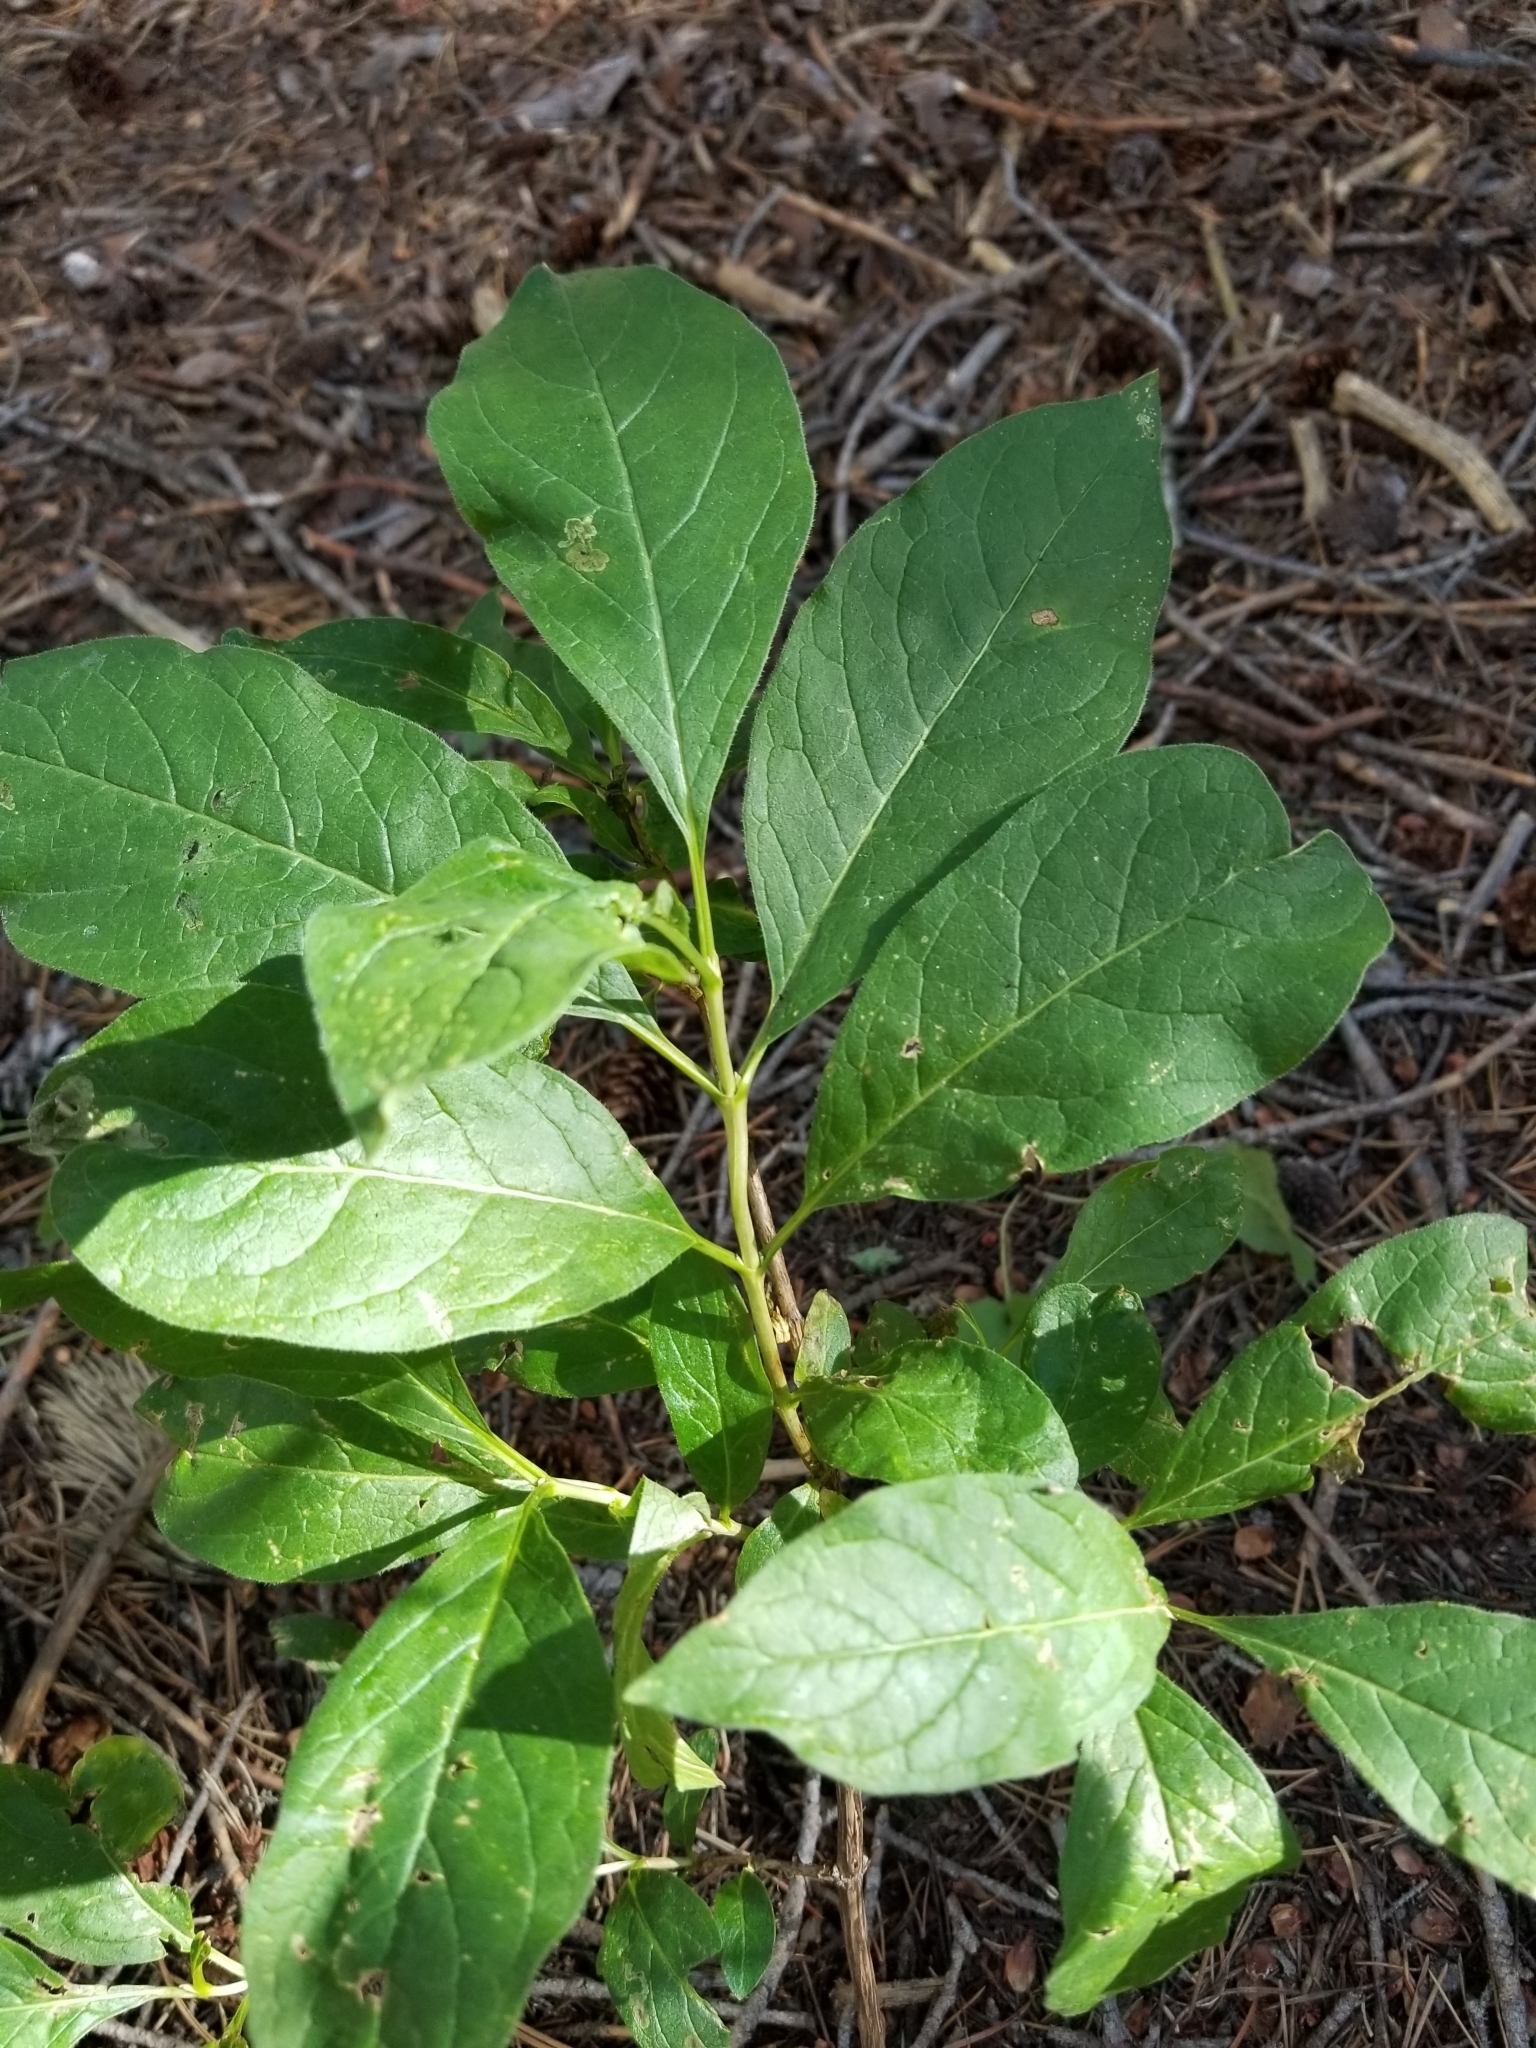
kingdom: Plantae
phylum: Tracheophyta
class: Magnoliopsida
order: Dipsacales
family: Caprifoliaceae
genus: Lonicera
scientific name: Lonicera involucrata
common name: Californian honeysuckle
